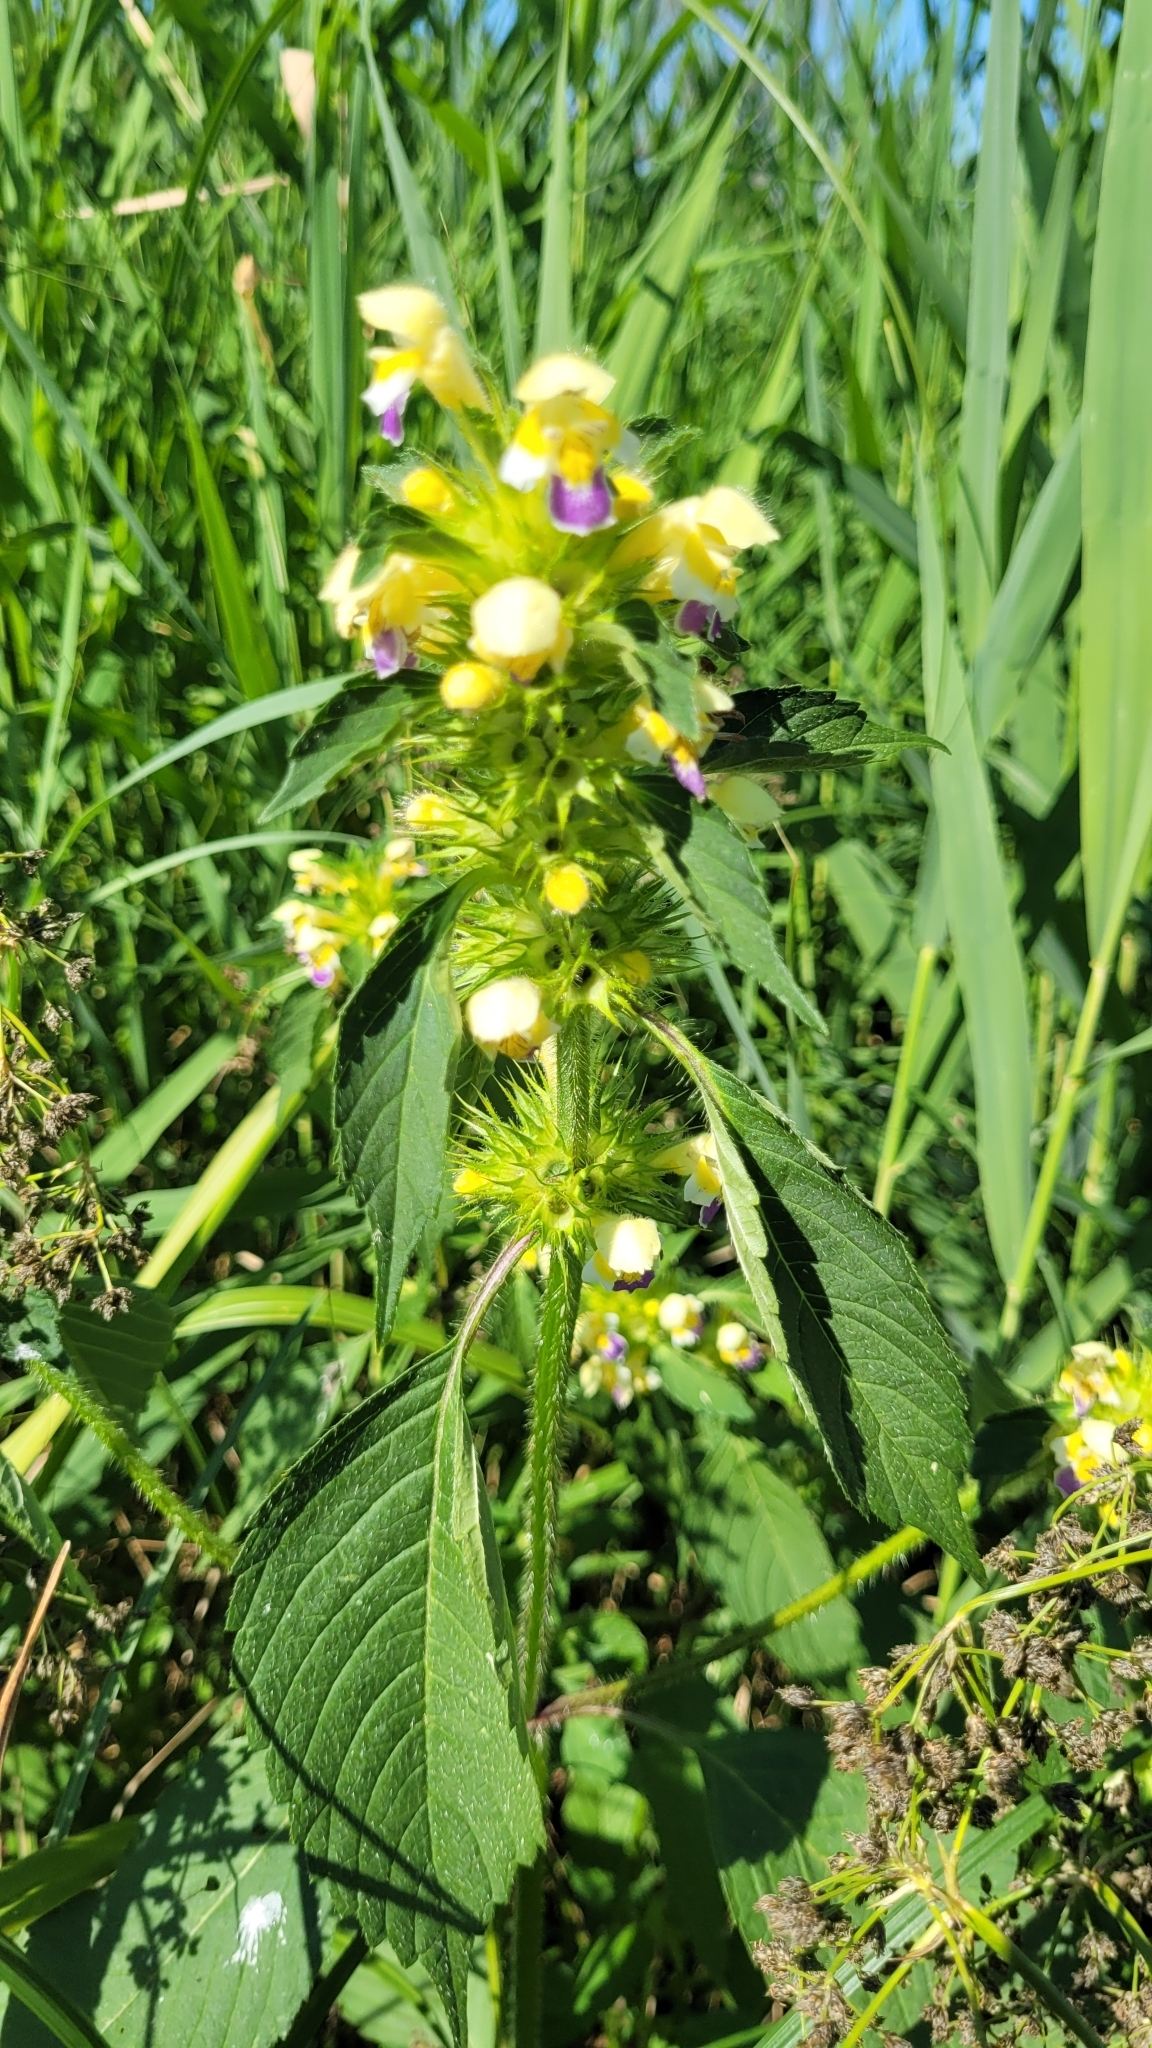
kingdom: Plantae
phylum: Tracheophyta
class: Magnoliopsida
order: Lamiales
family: Lamiaceae
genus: Galeopsis
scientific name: Galeopsis speciosa
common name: Large-flowered hemp-nettle
